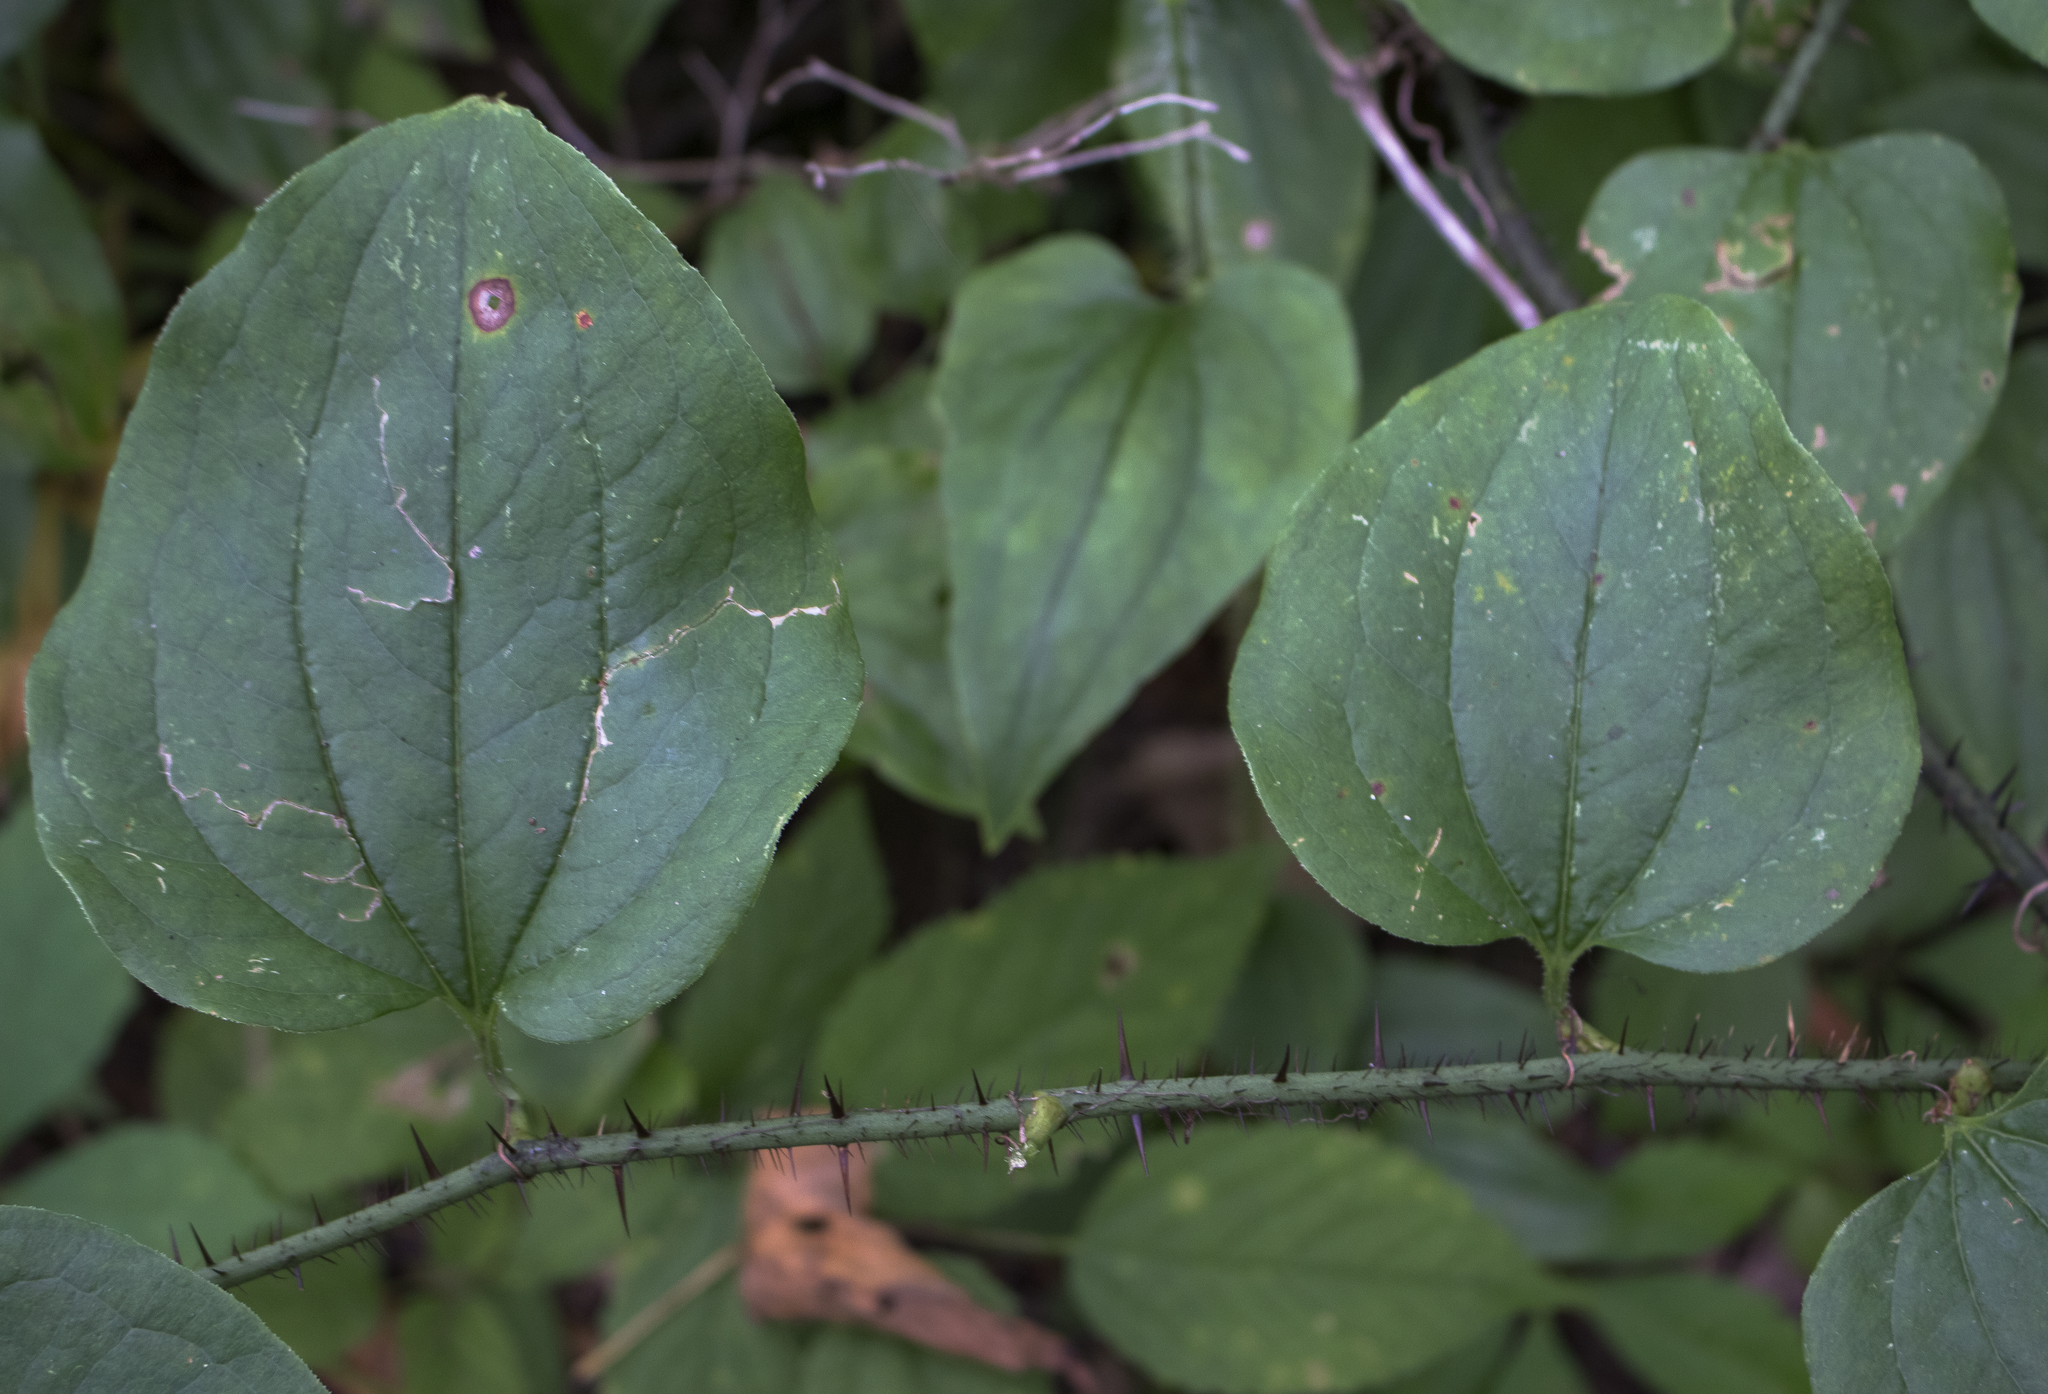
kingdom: Plantae
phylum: Tracheophyta
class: Liliopsida
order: Liliales
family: Smilacaceae
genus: Smilax
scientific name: Smilax tamnoides
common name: Hellfetter
